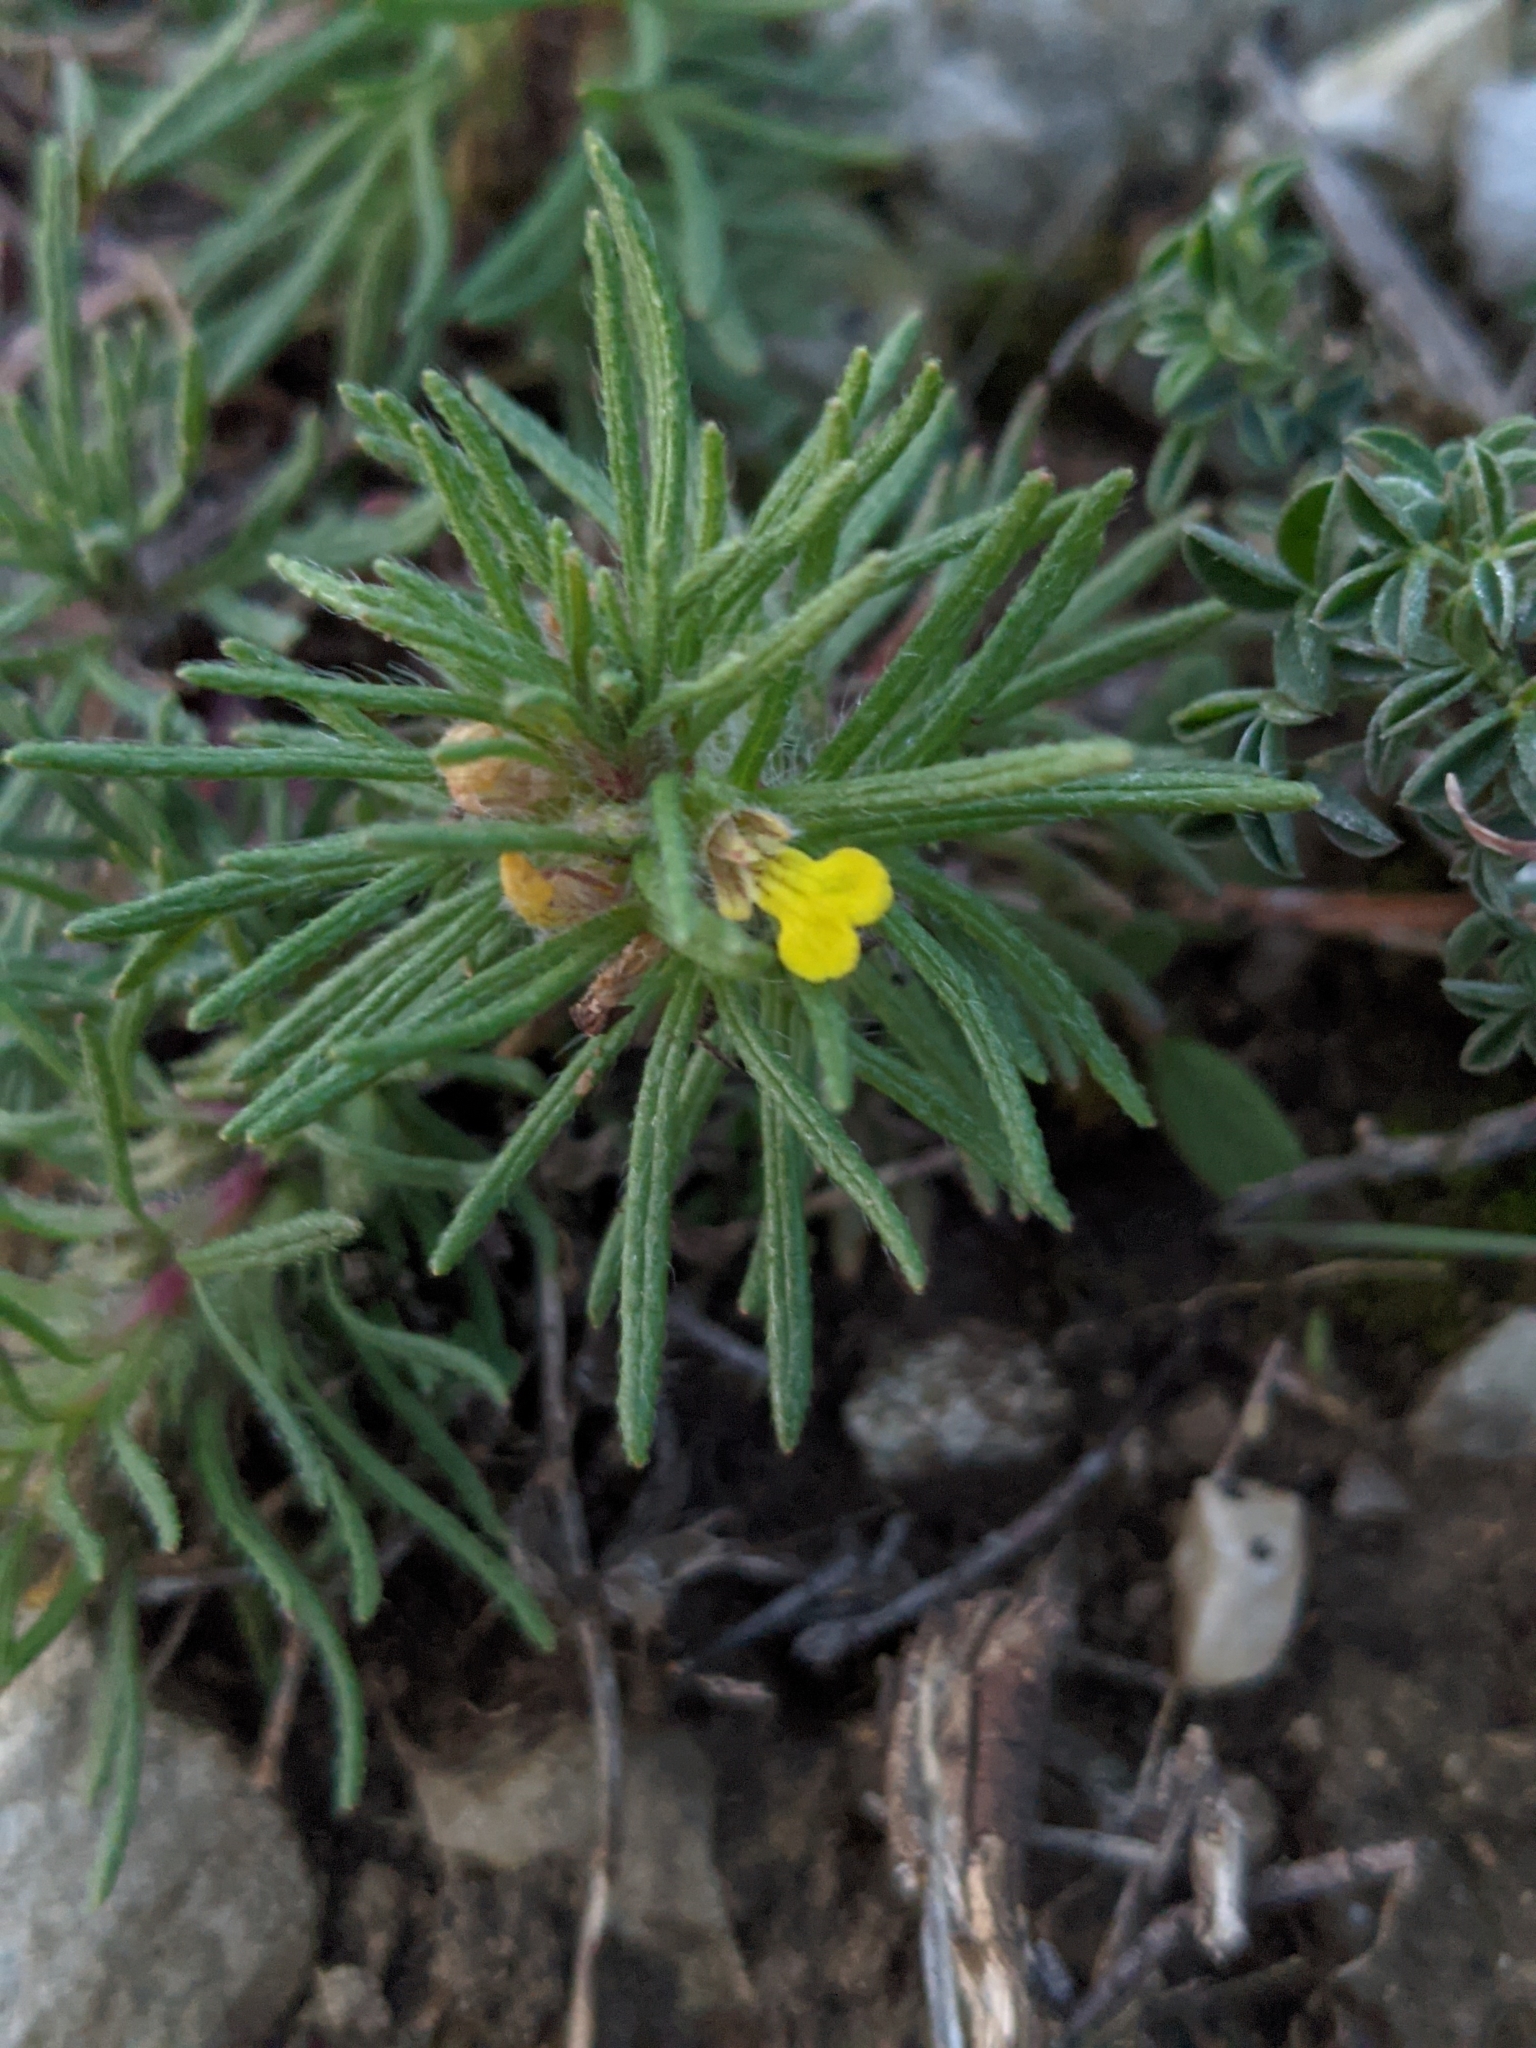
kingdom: Plantae
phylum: Tracheophyta
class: Magnoliopsida
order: Lamiales
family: Lamiaceae
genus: Ajuga
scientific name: Ajuga chamaepitys
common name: Ground-pine
